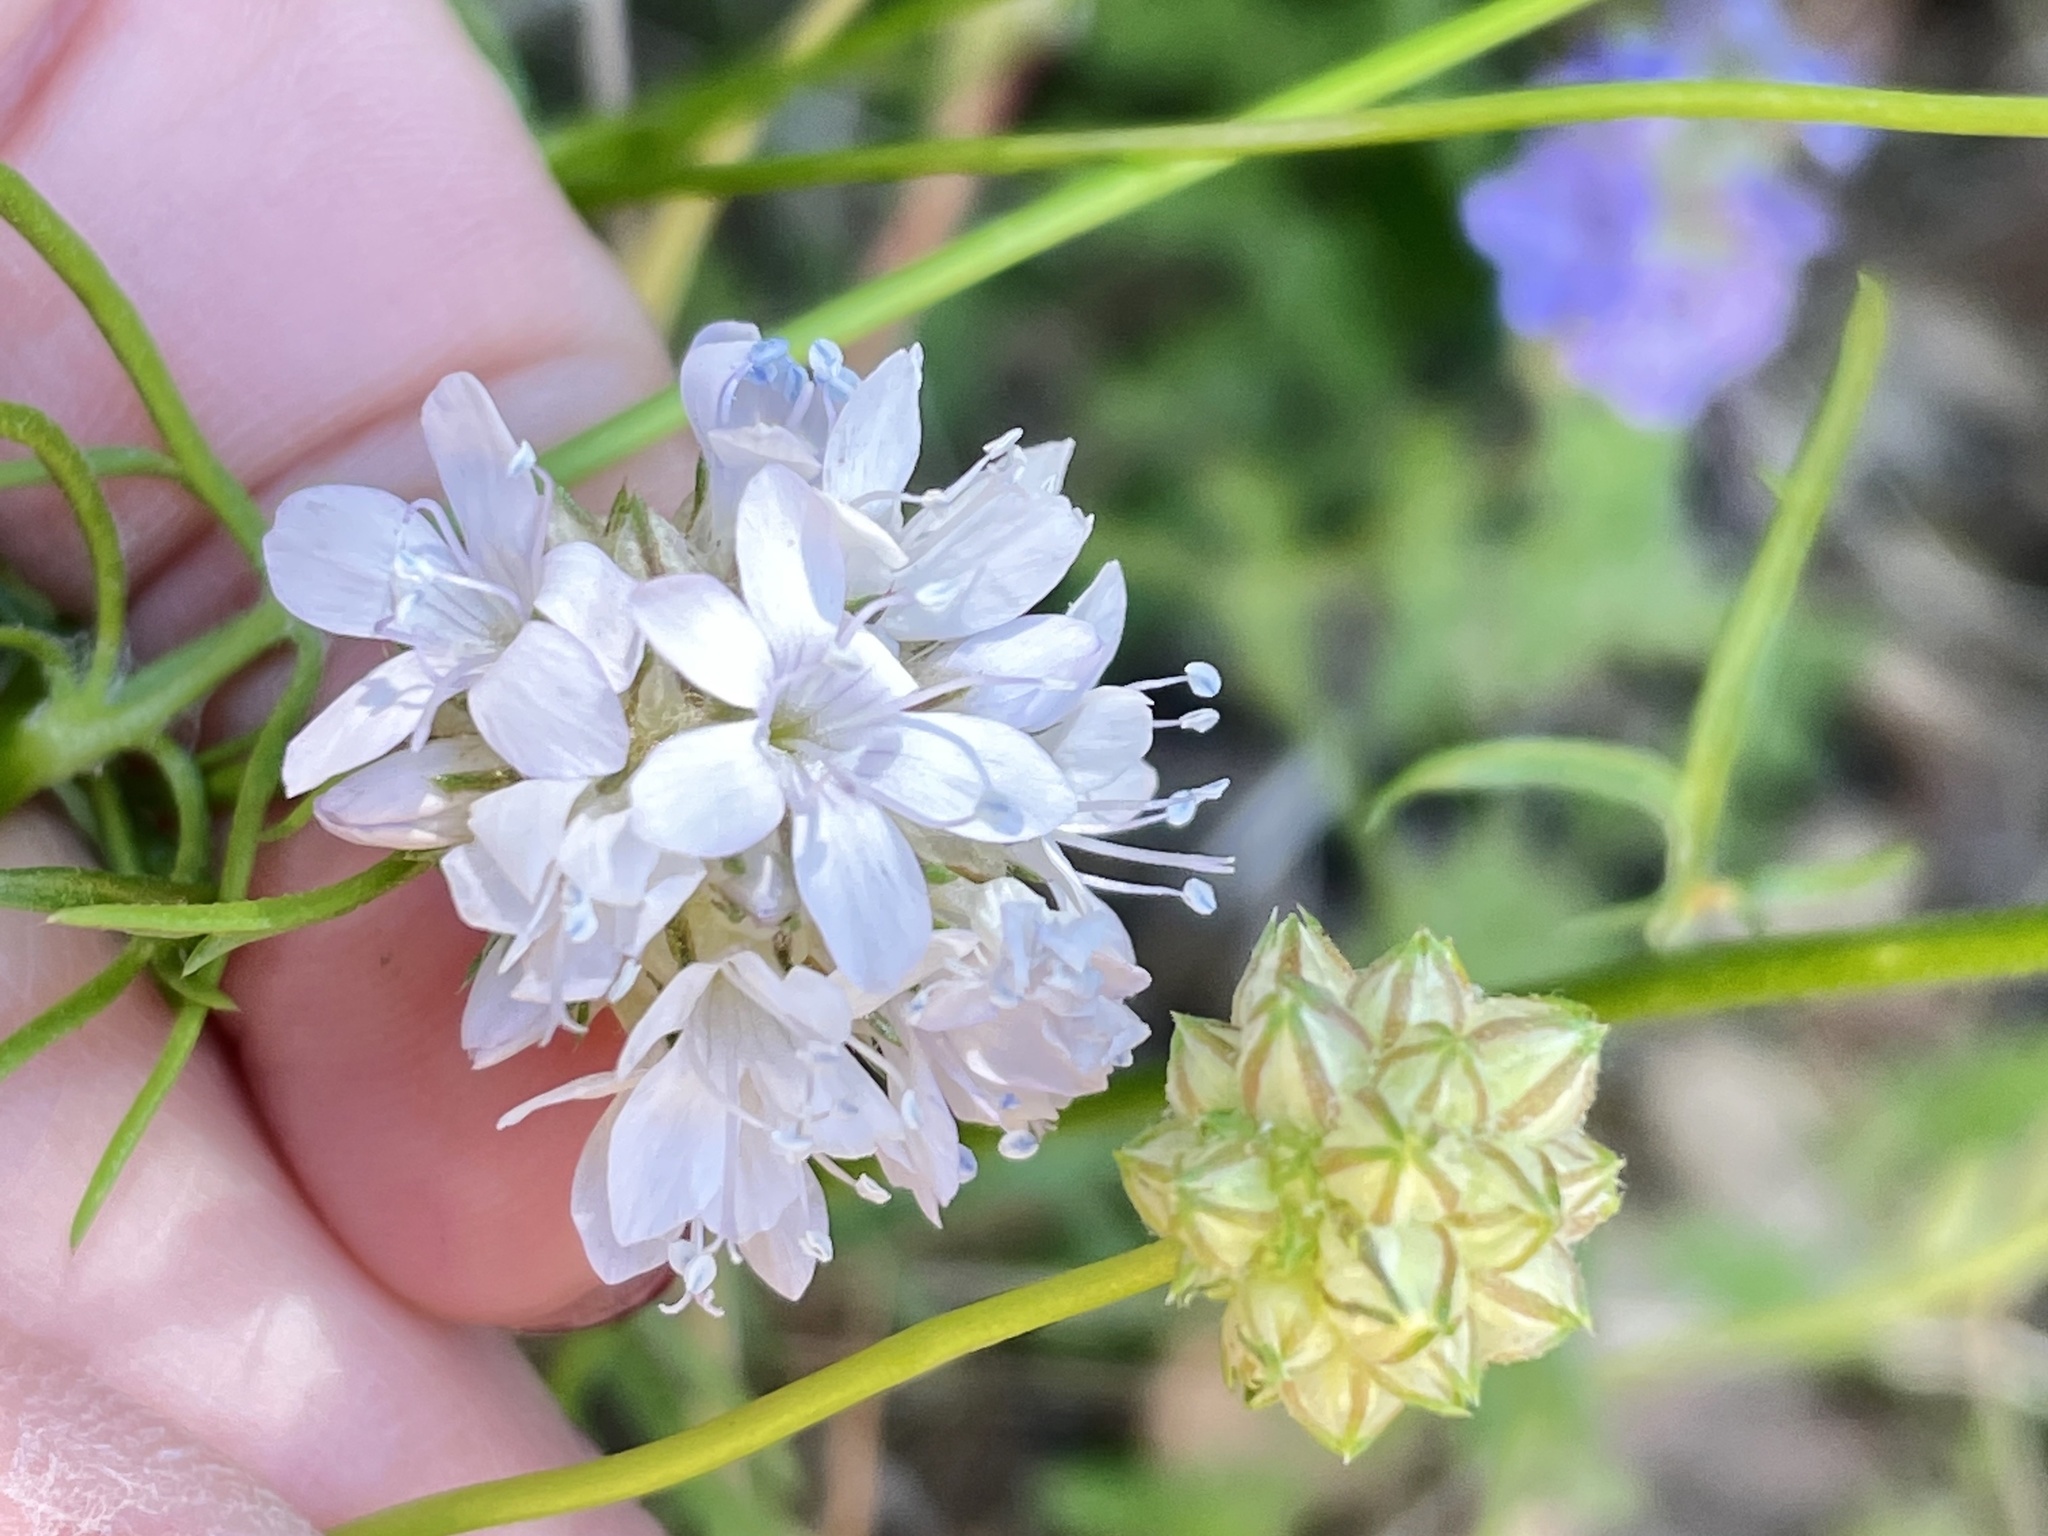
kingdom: Plantae
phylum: Tracheophyta
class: Magnoliopsida
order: Ericales
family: Polemoniaceae
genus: Gilia
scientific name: Gilia capitata
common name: Bluehead gilia
